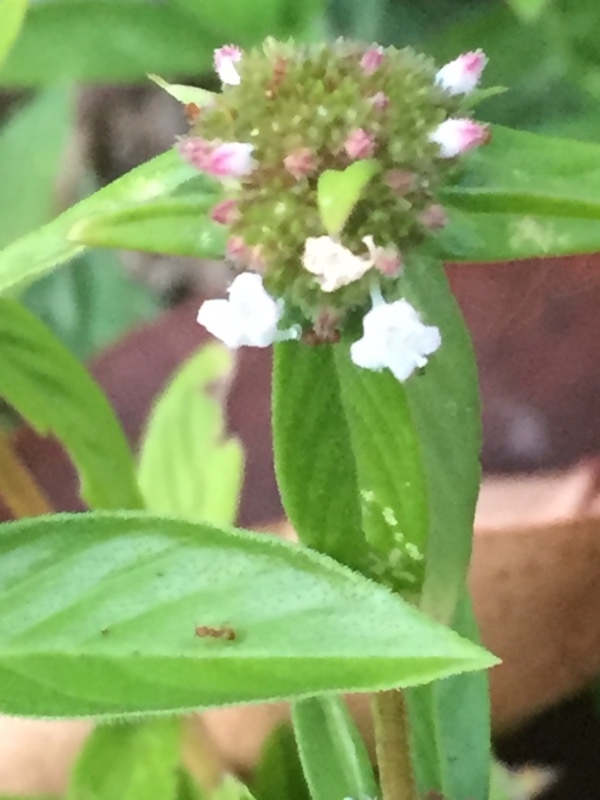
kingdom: Plantae
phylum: Tracheophyta
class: Magnoliopsida
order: Gentianales
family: Rubiaceae
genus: Spermacoce
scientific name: Spermacoce remota
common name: Woodland false buttonweed
